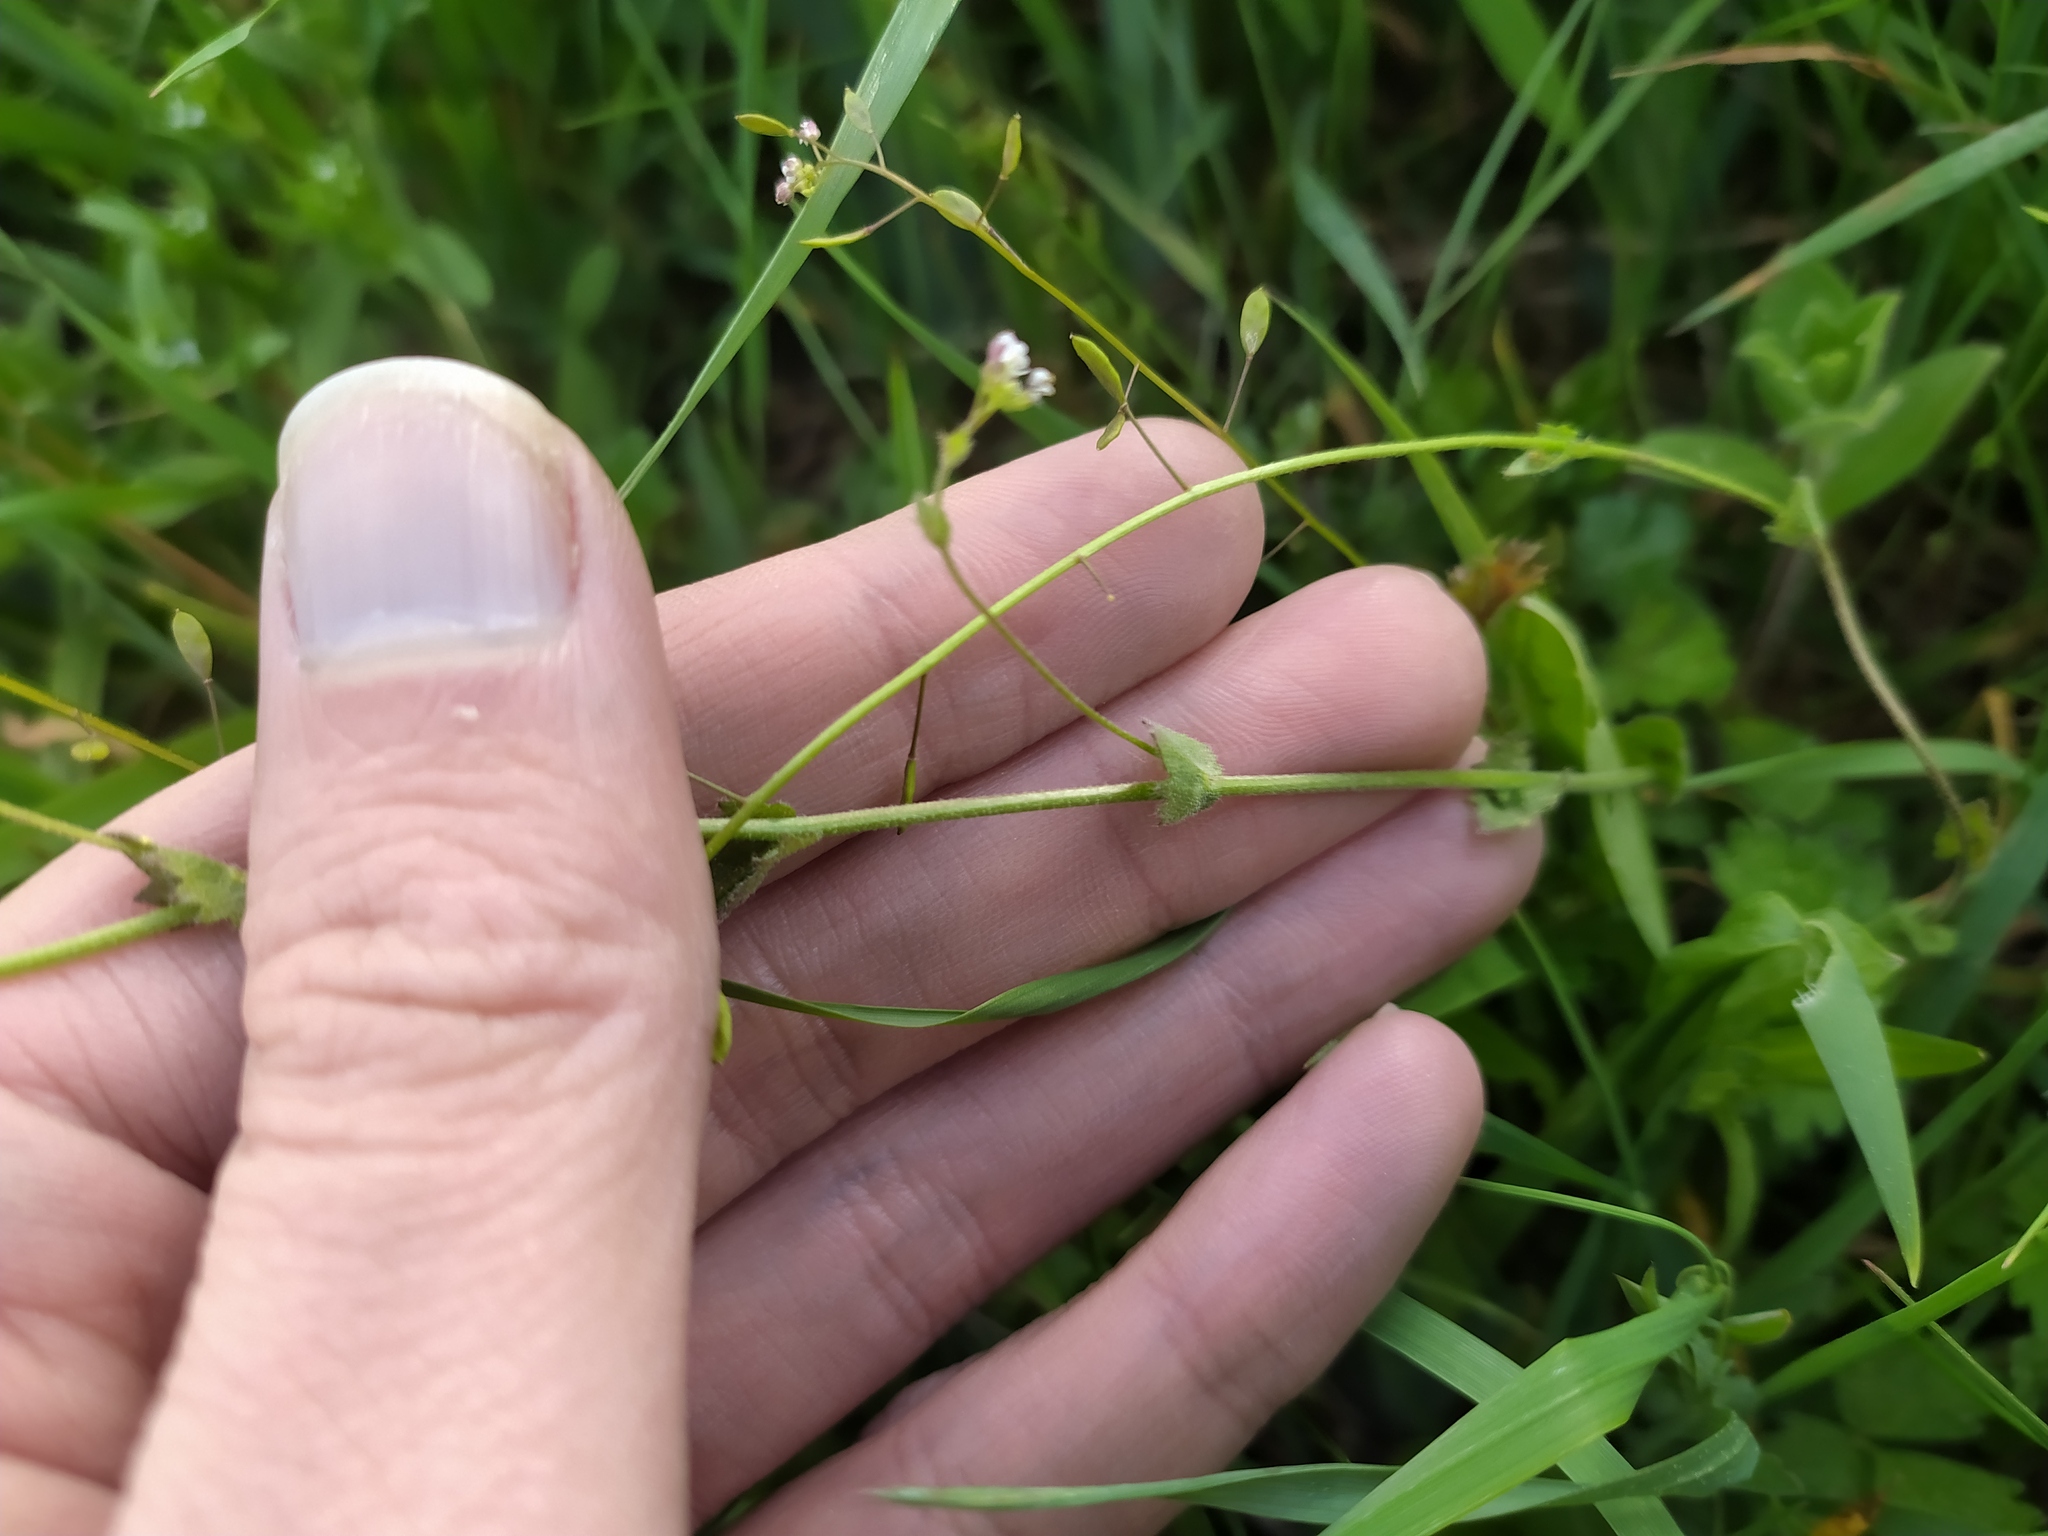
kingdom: Plantae
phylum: Tracheophyta
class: Magnoliopsida
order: Brassicales
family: Brassicaceae
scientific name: Brassicaceae
